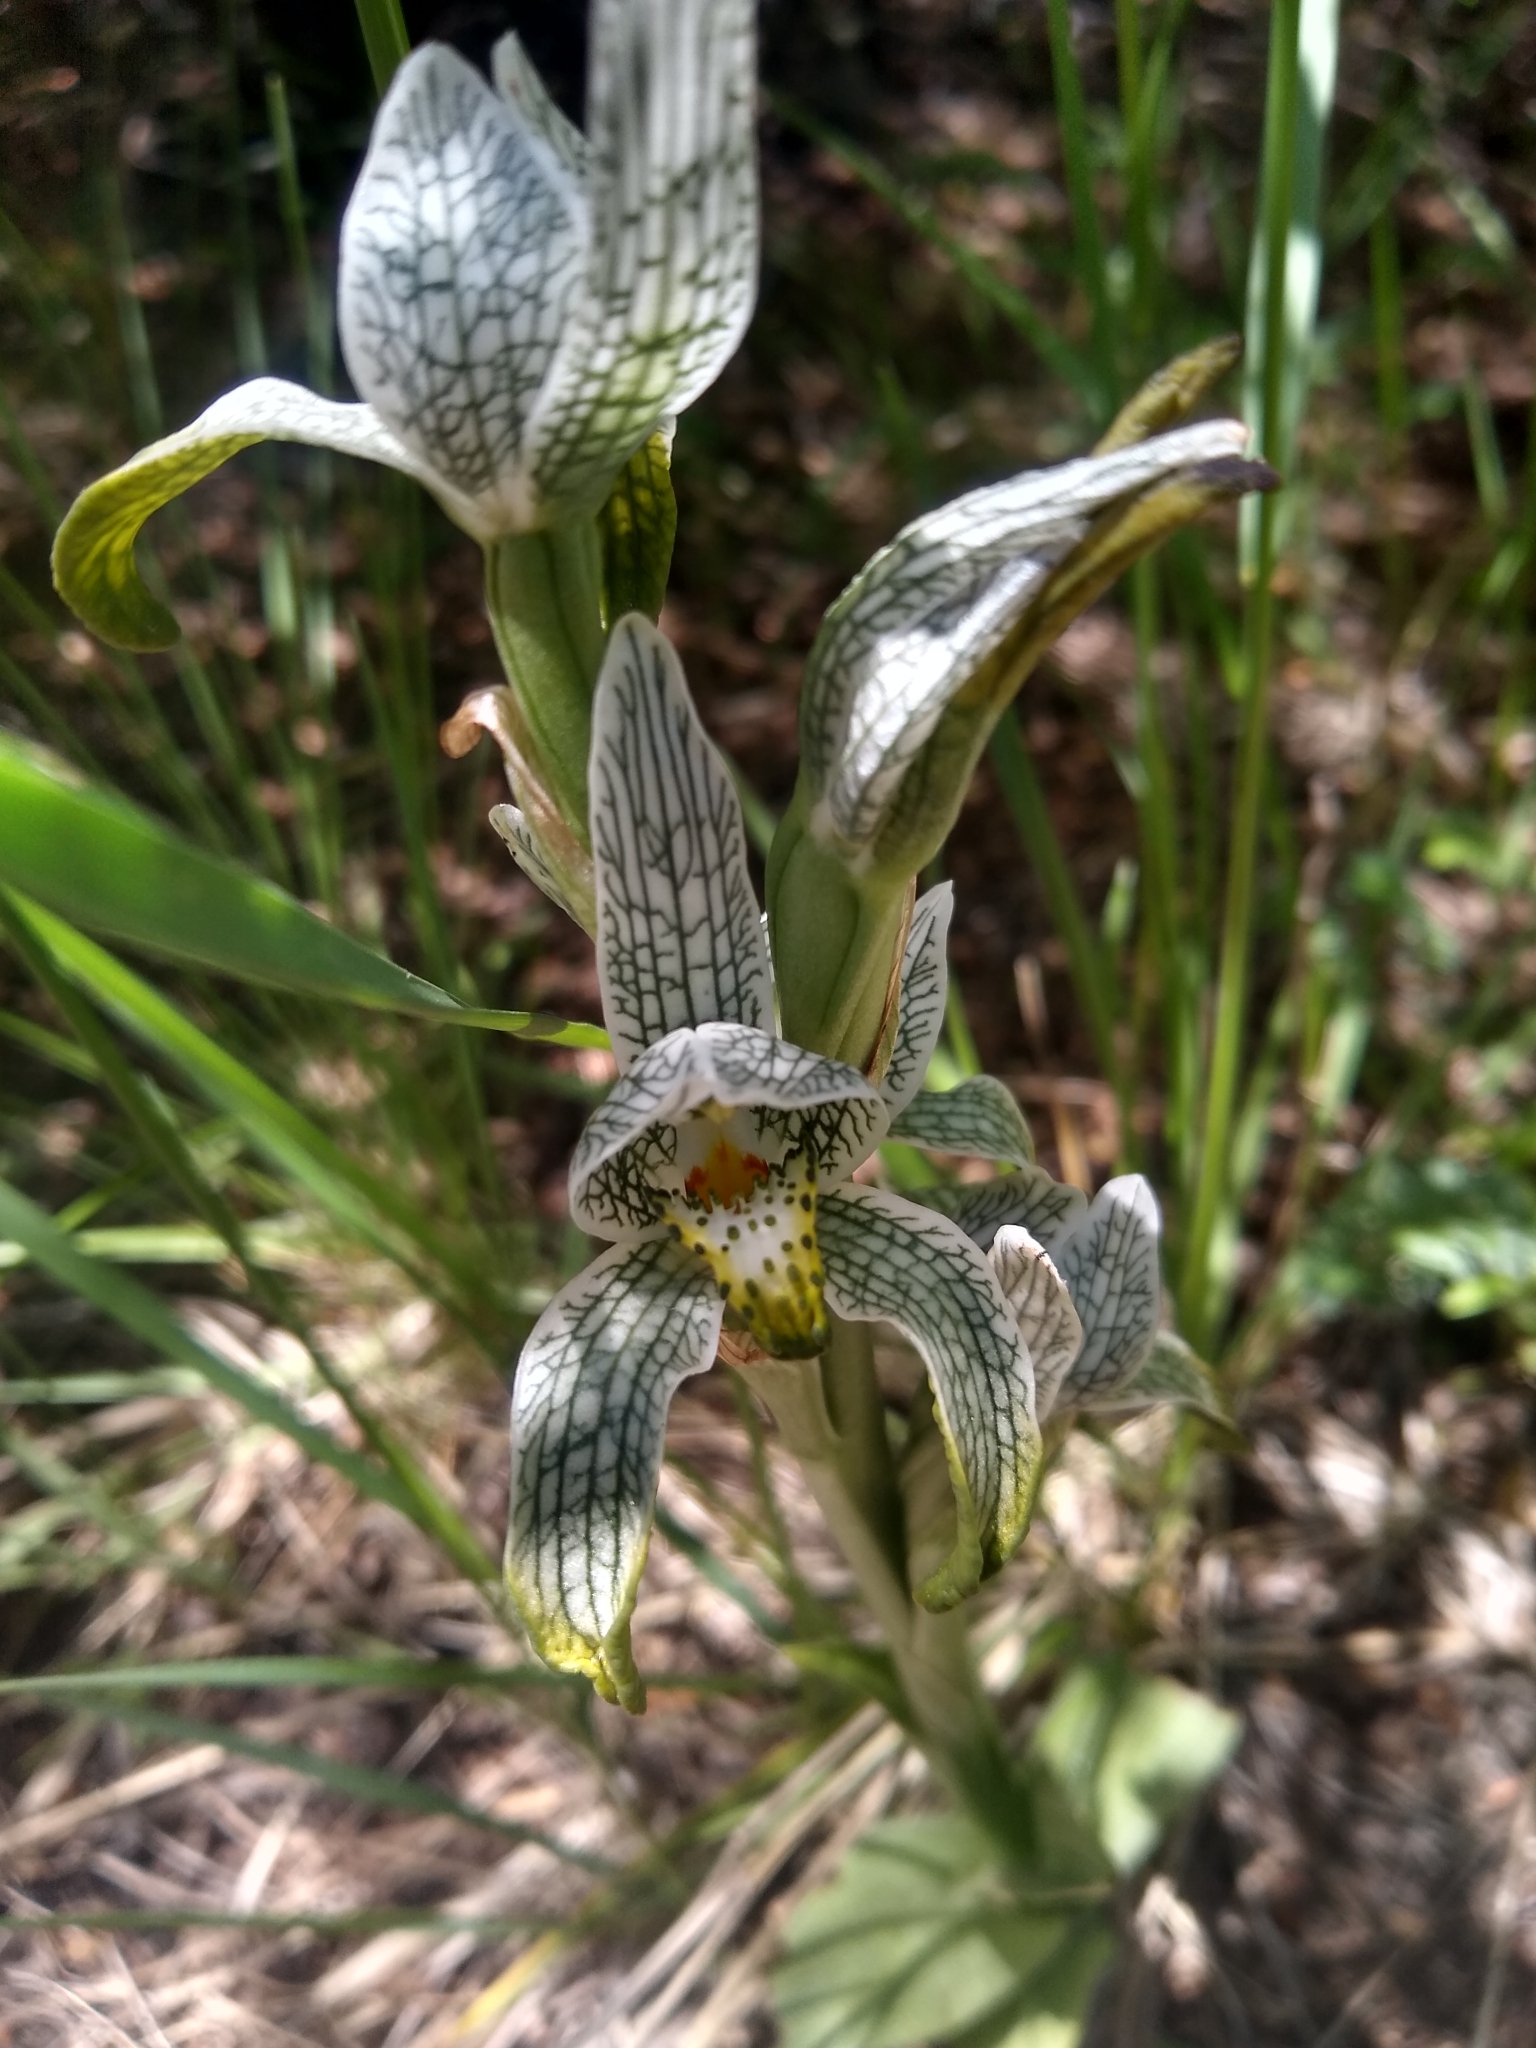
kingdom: Plantae
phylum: Tracheophyta
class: Liliopsida
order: Asparagales
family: Orchidaceae
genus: Chloraea
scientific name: Chloraea magellanica
